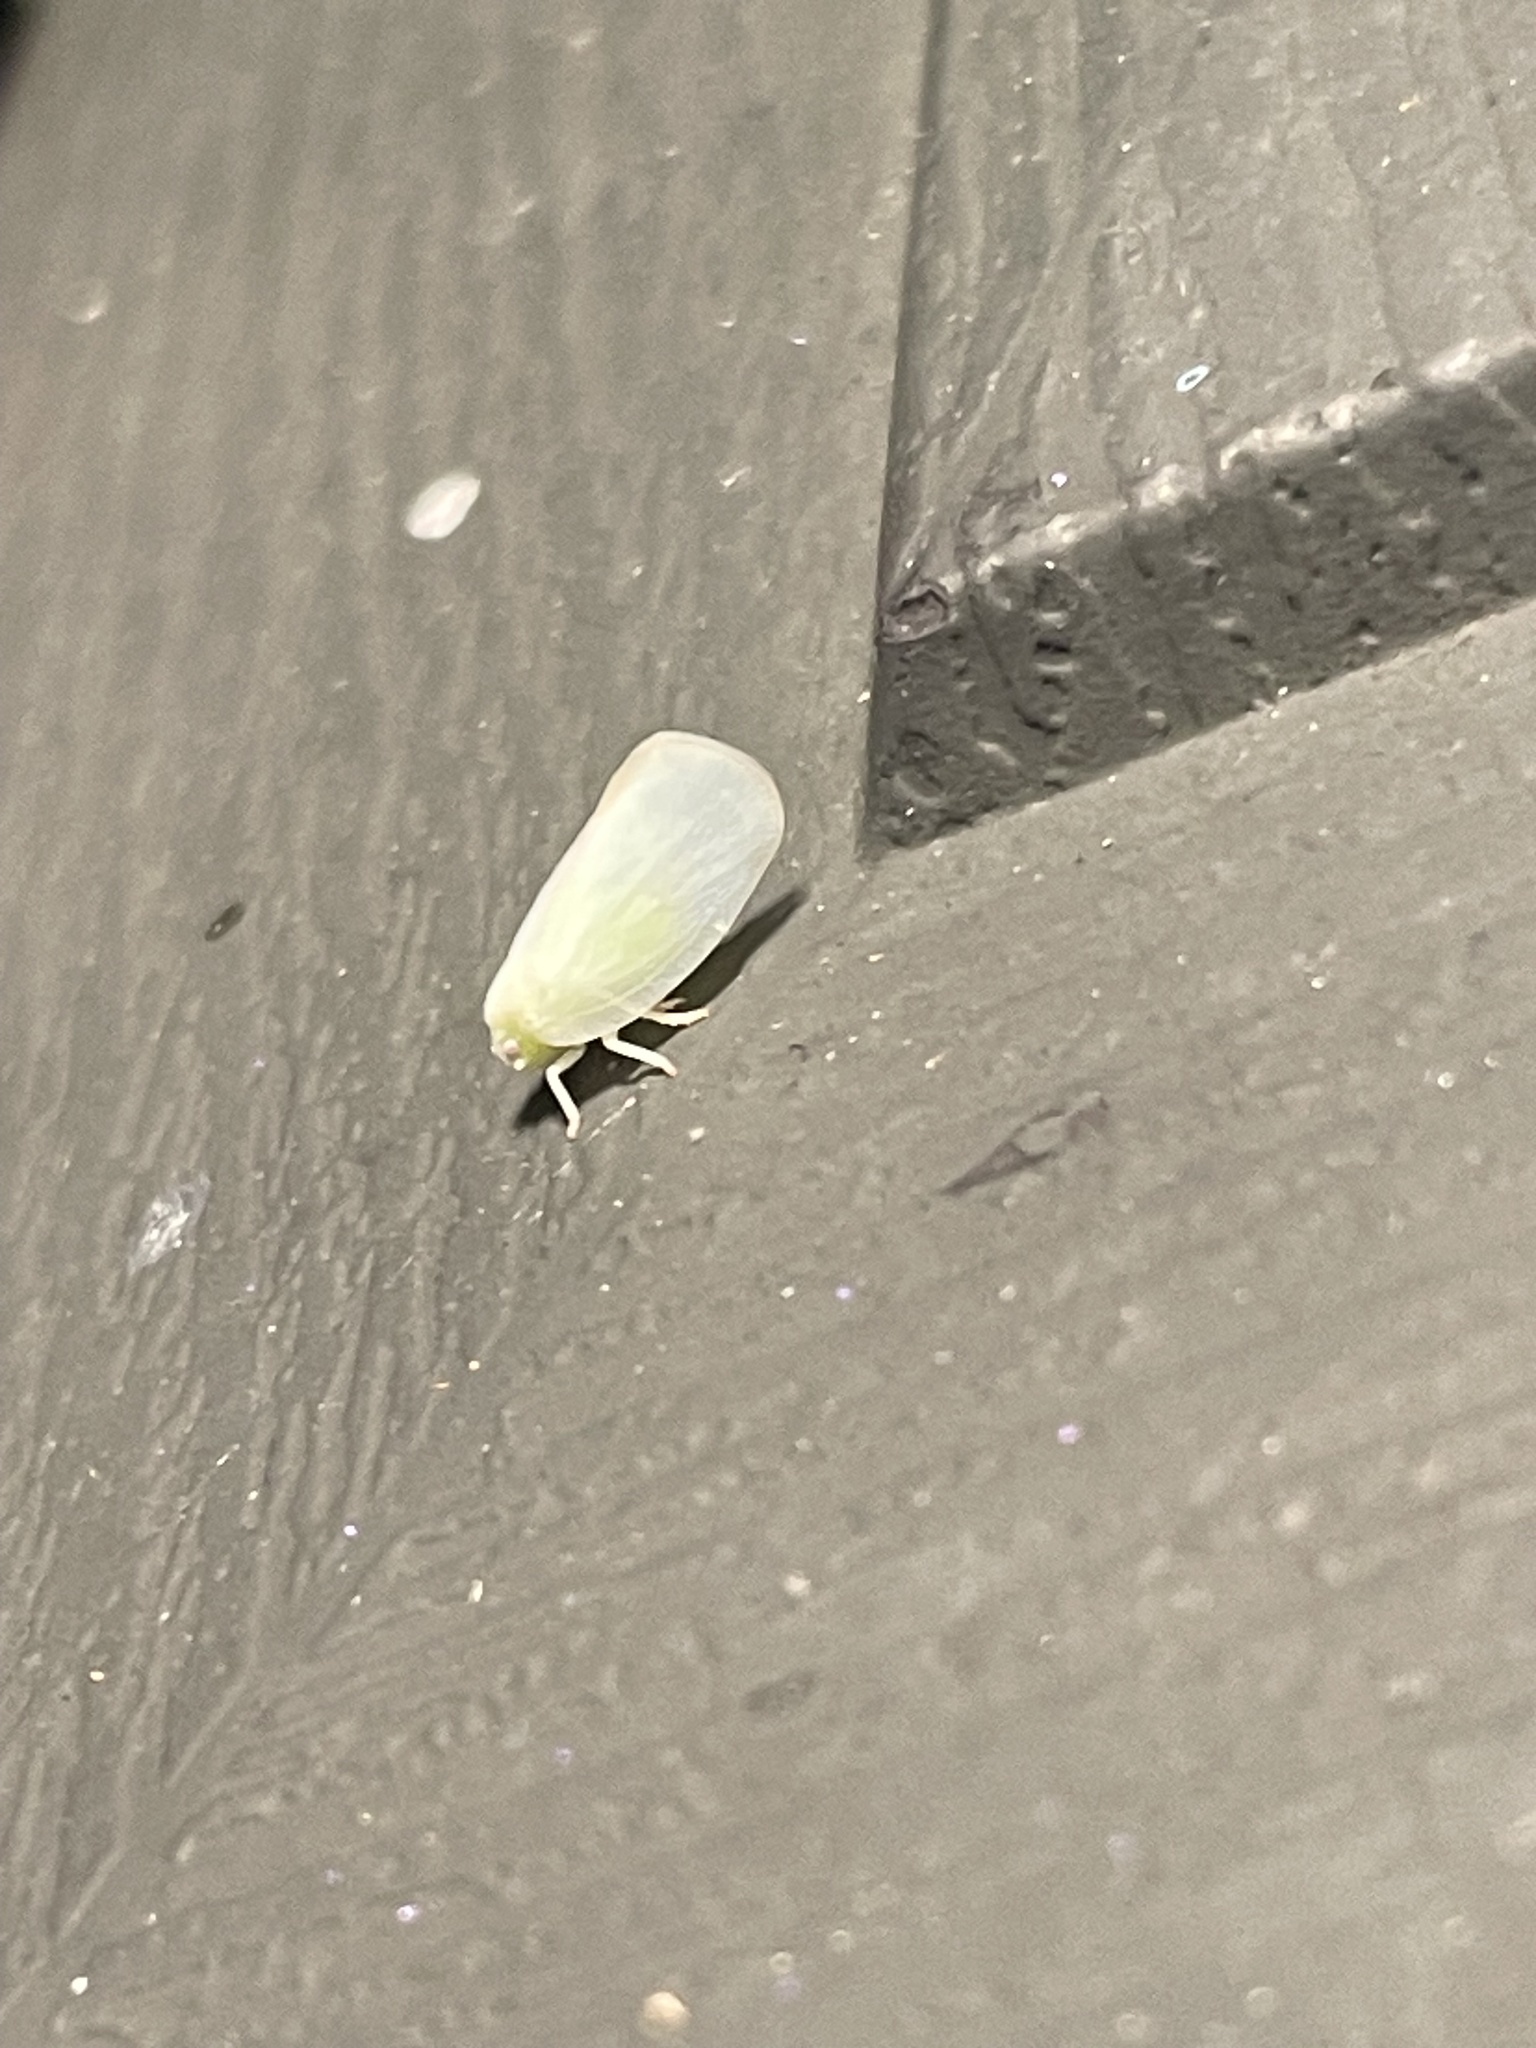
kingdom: Animalia
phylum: Arthropoda
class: Insecta
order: Hemiptera
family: Flatidae
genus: Ormenoides
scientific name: Ormenoides venusta
